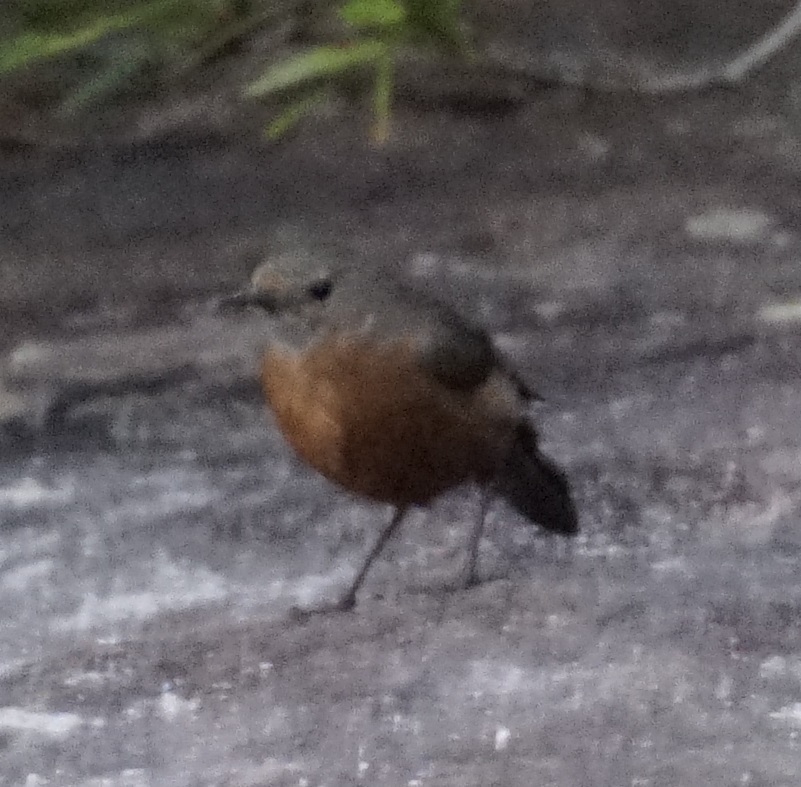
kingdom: Animalia
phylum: Chordata
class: Aves
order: Passeriformes
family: Acanthizidae
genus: Origma
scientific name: Origma solitaria
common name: Rockwarbler
